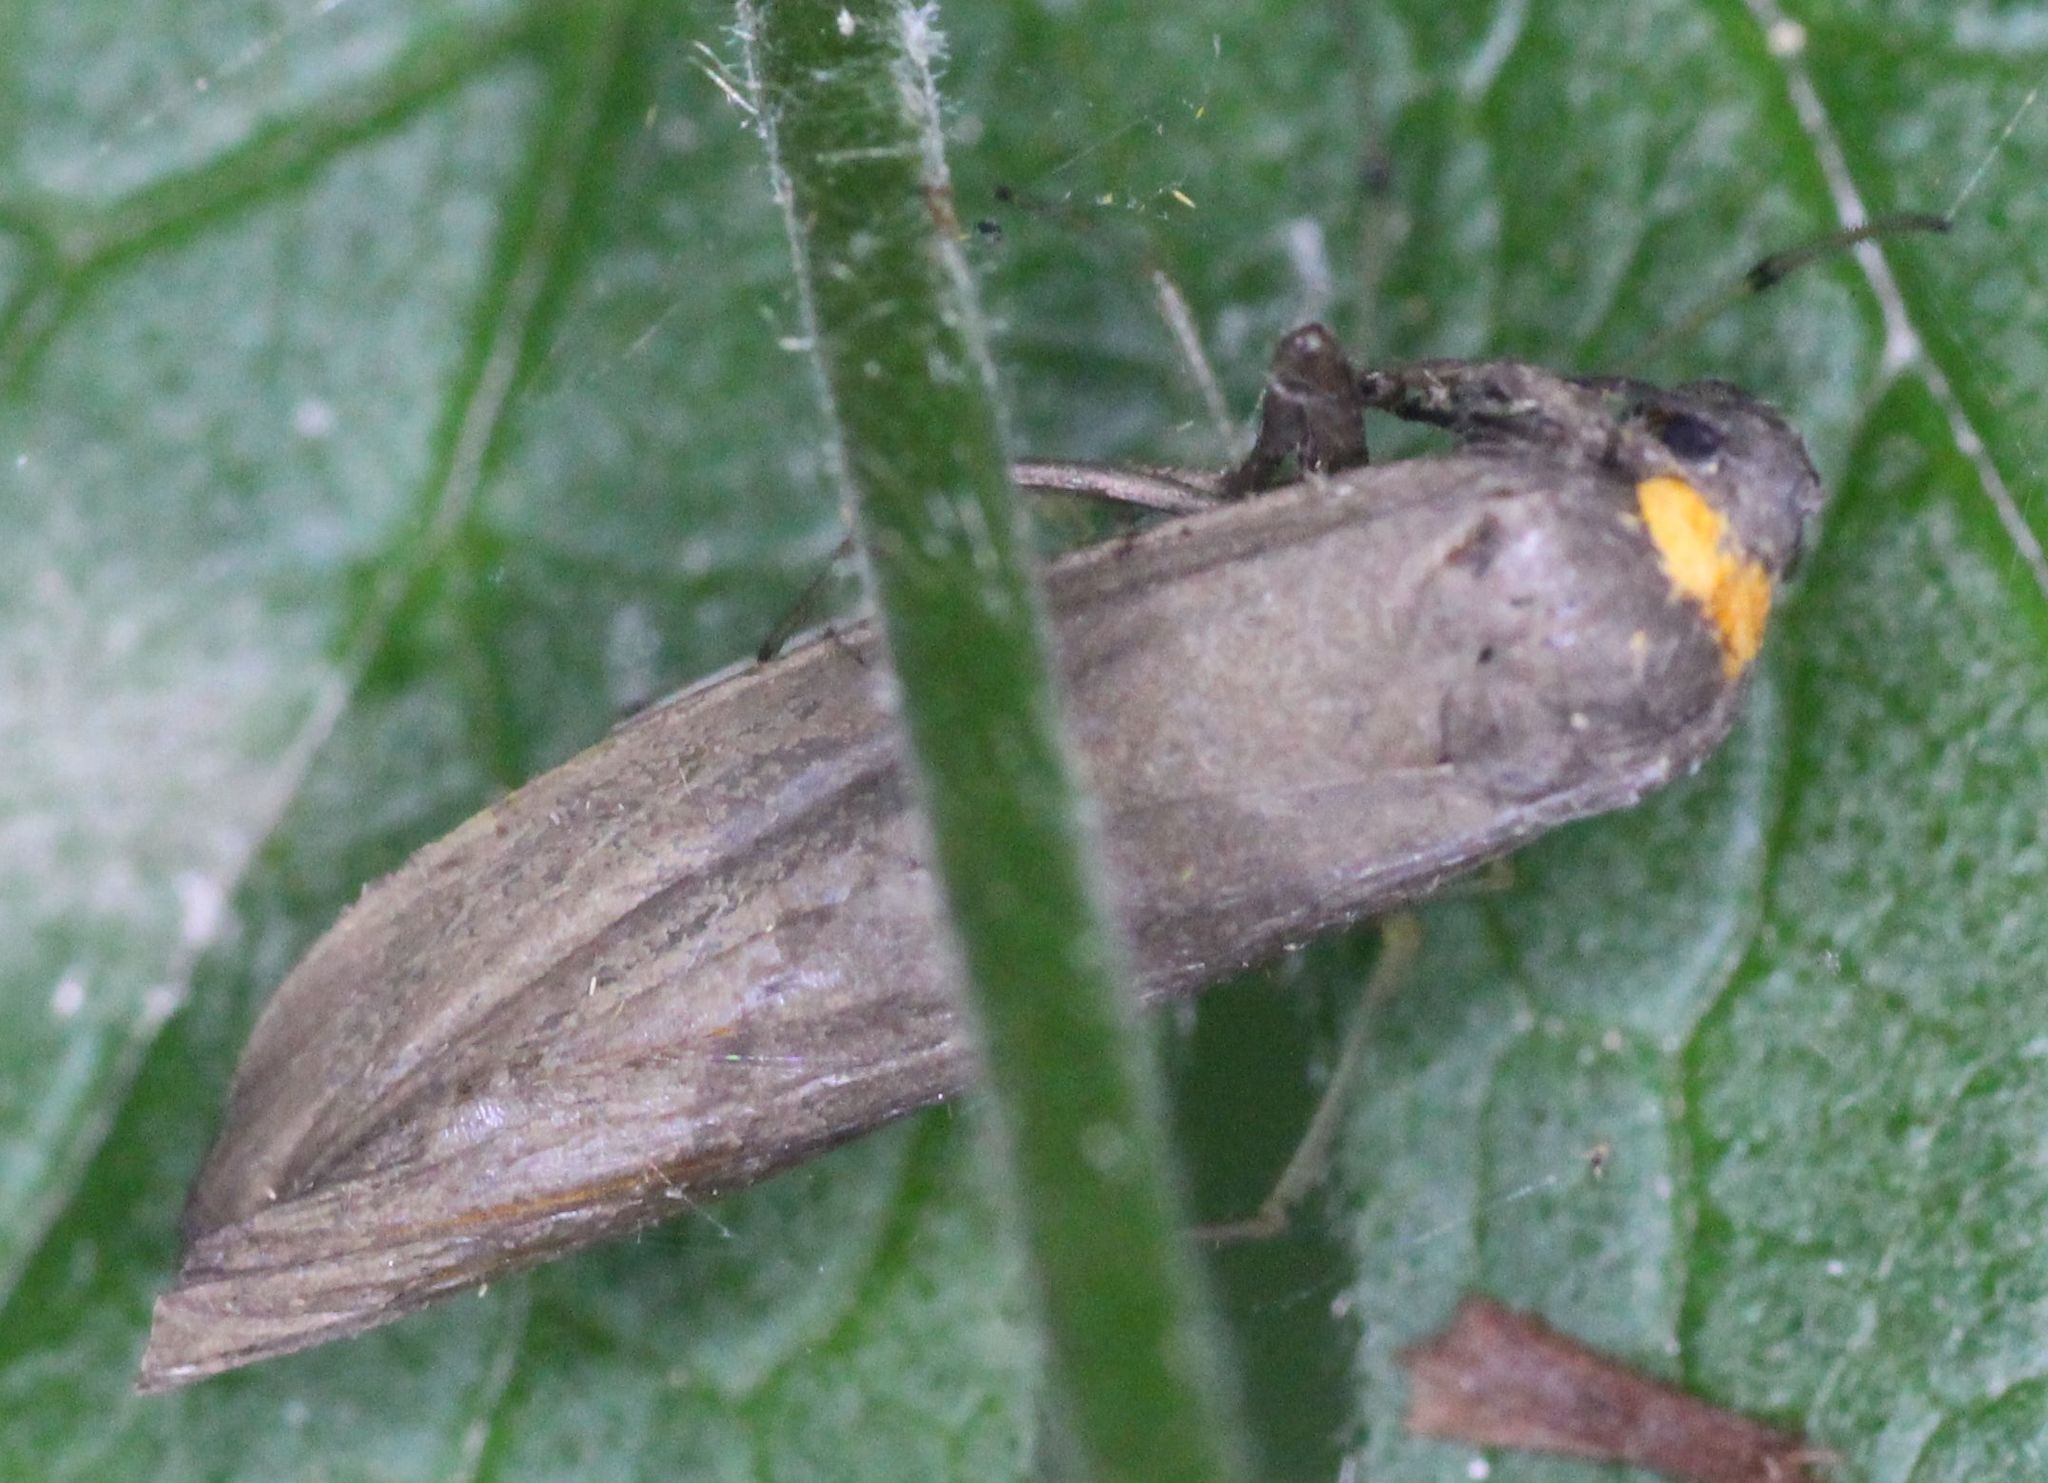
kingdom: Animalia
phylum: Arthropoda
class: Insecta
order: Lepidoptera
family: Erebidae
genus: Atolmis
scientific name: Atolmis rubricollis
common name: Red-necked footman
